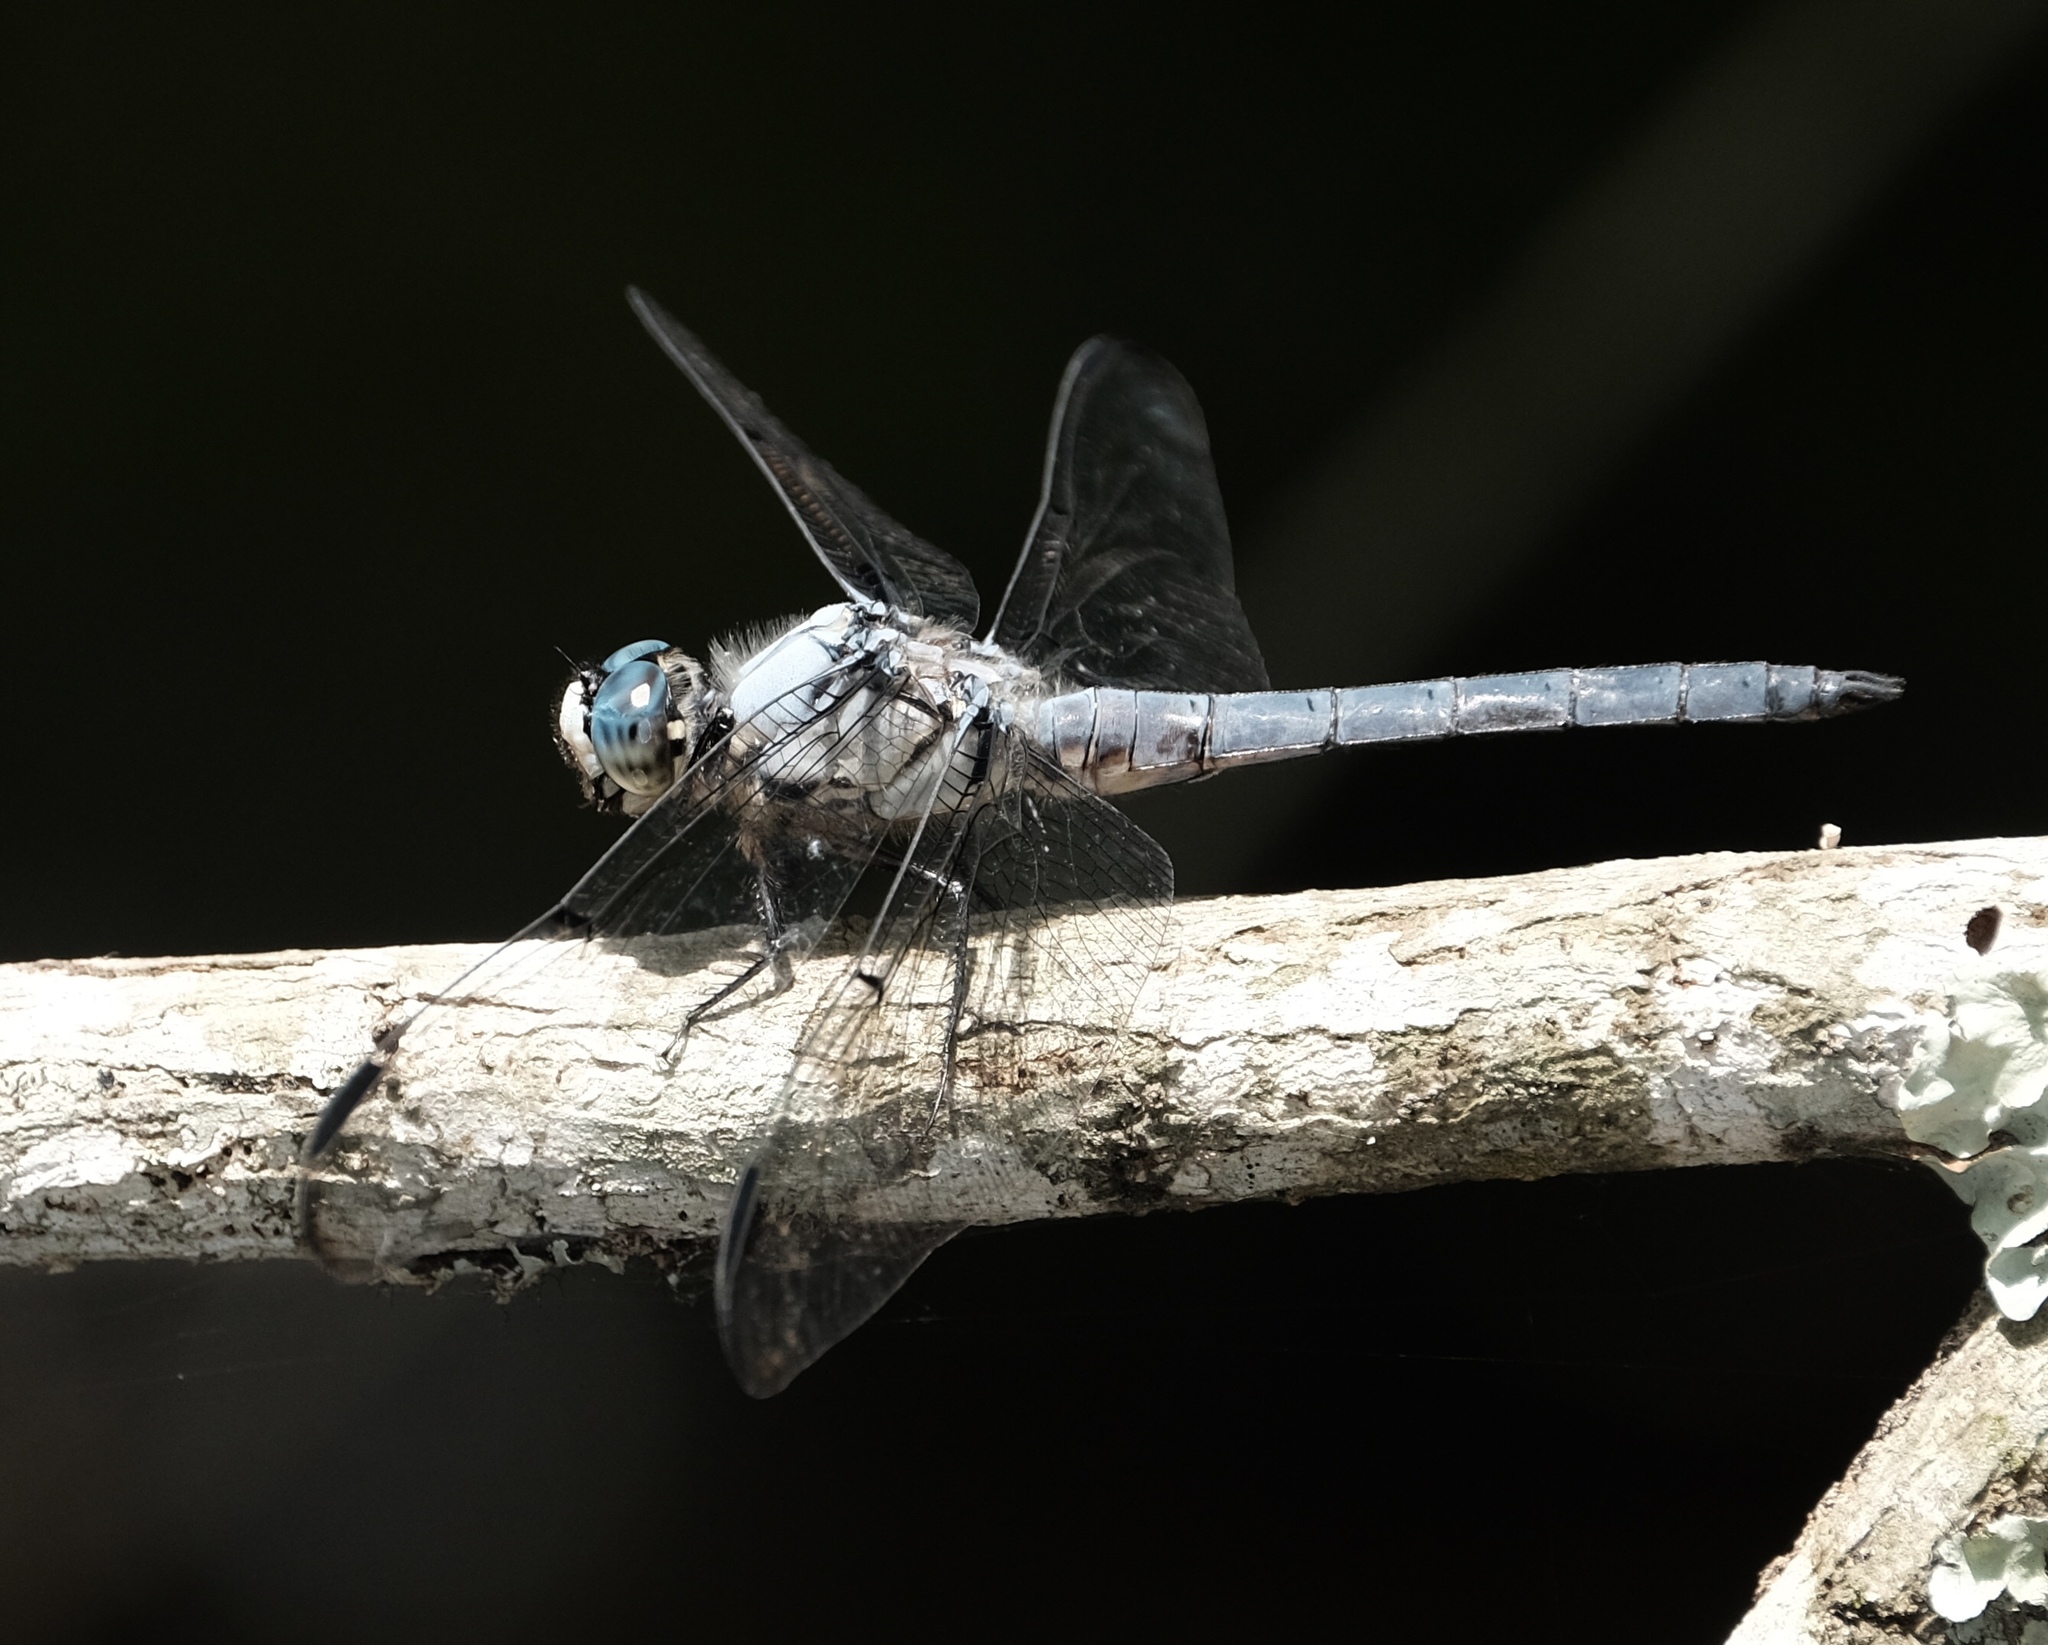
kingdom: Animalia
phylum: Arthropoda
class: Insecta
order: Odonata
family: Libellulidae
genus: Libellula
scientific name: Libellula vibrans
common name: Great blue skimmer
